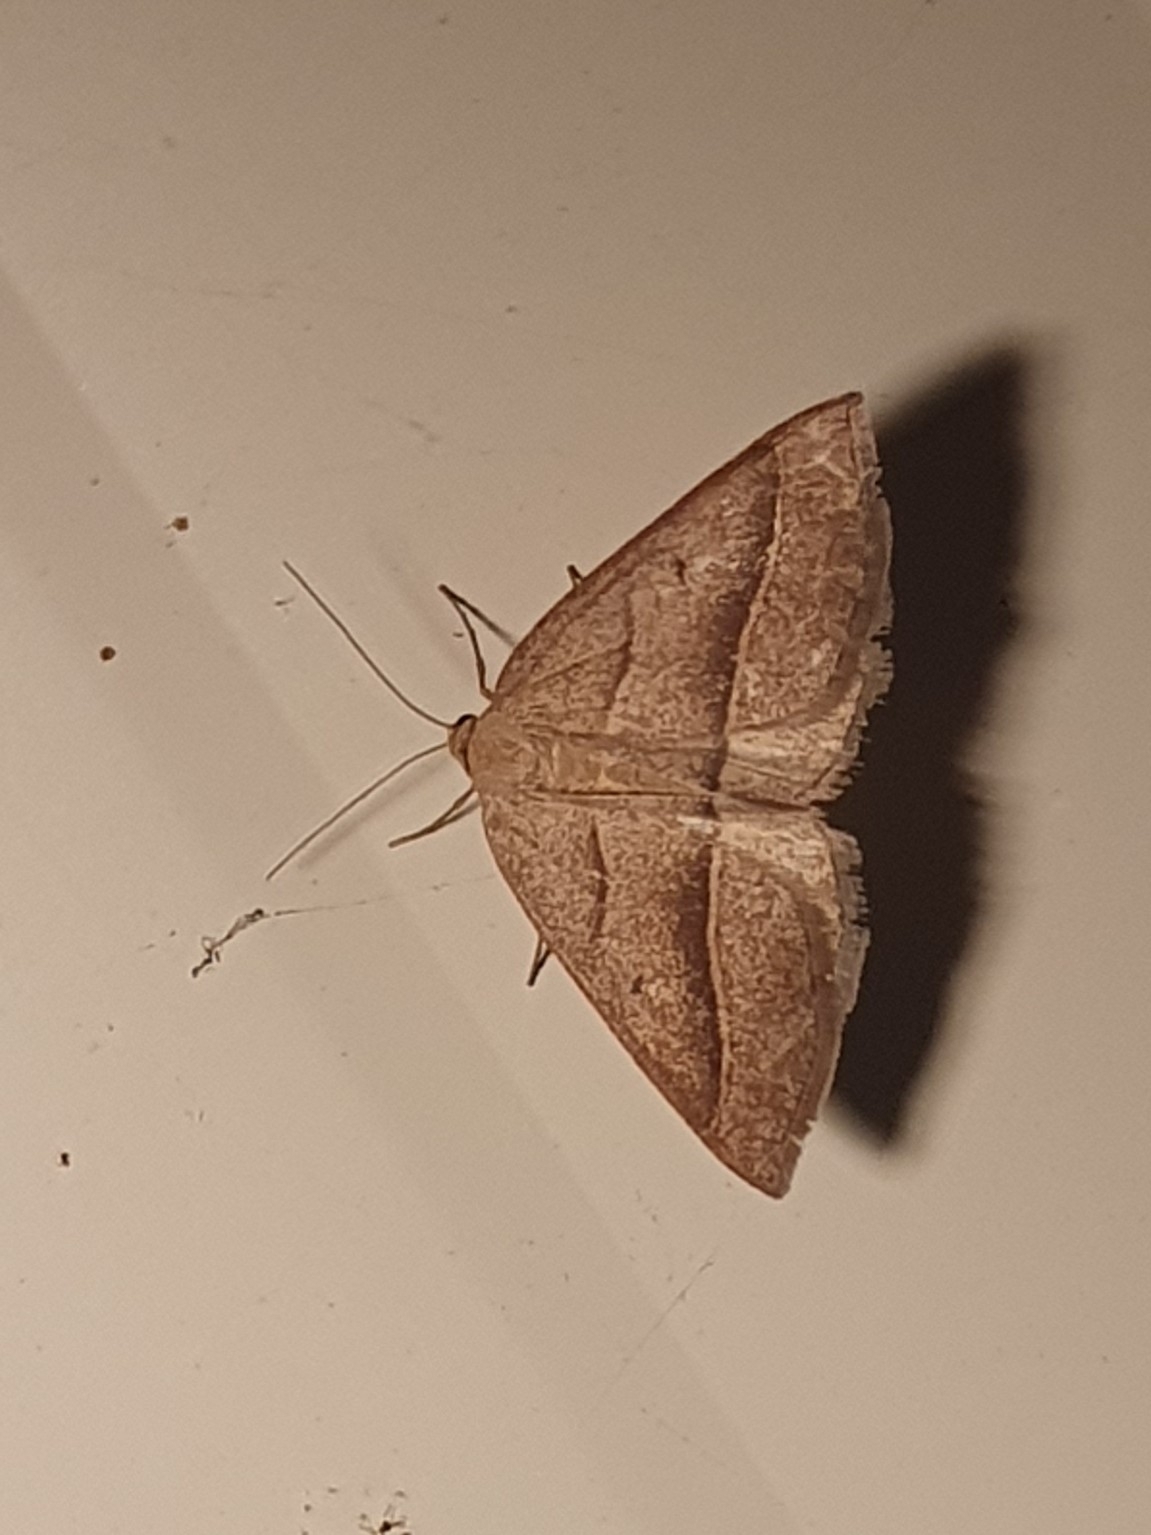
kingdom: Animalia
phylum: Arthropoda
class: Insecta
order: Lepidoptera
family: Pterophoridae
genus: Pterophorus
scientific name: Pterophorus Petrophora chlorosata
